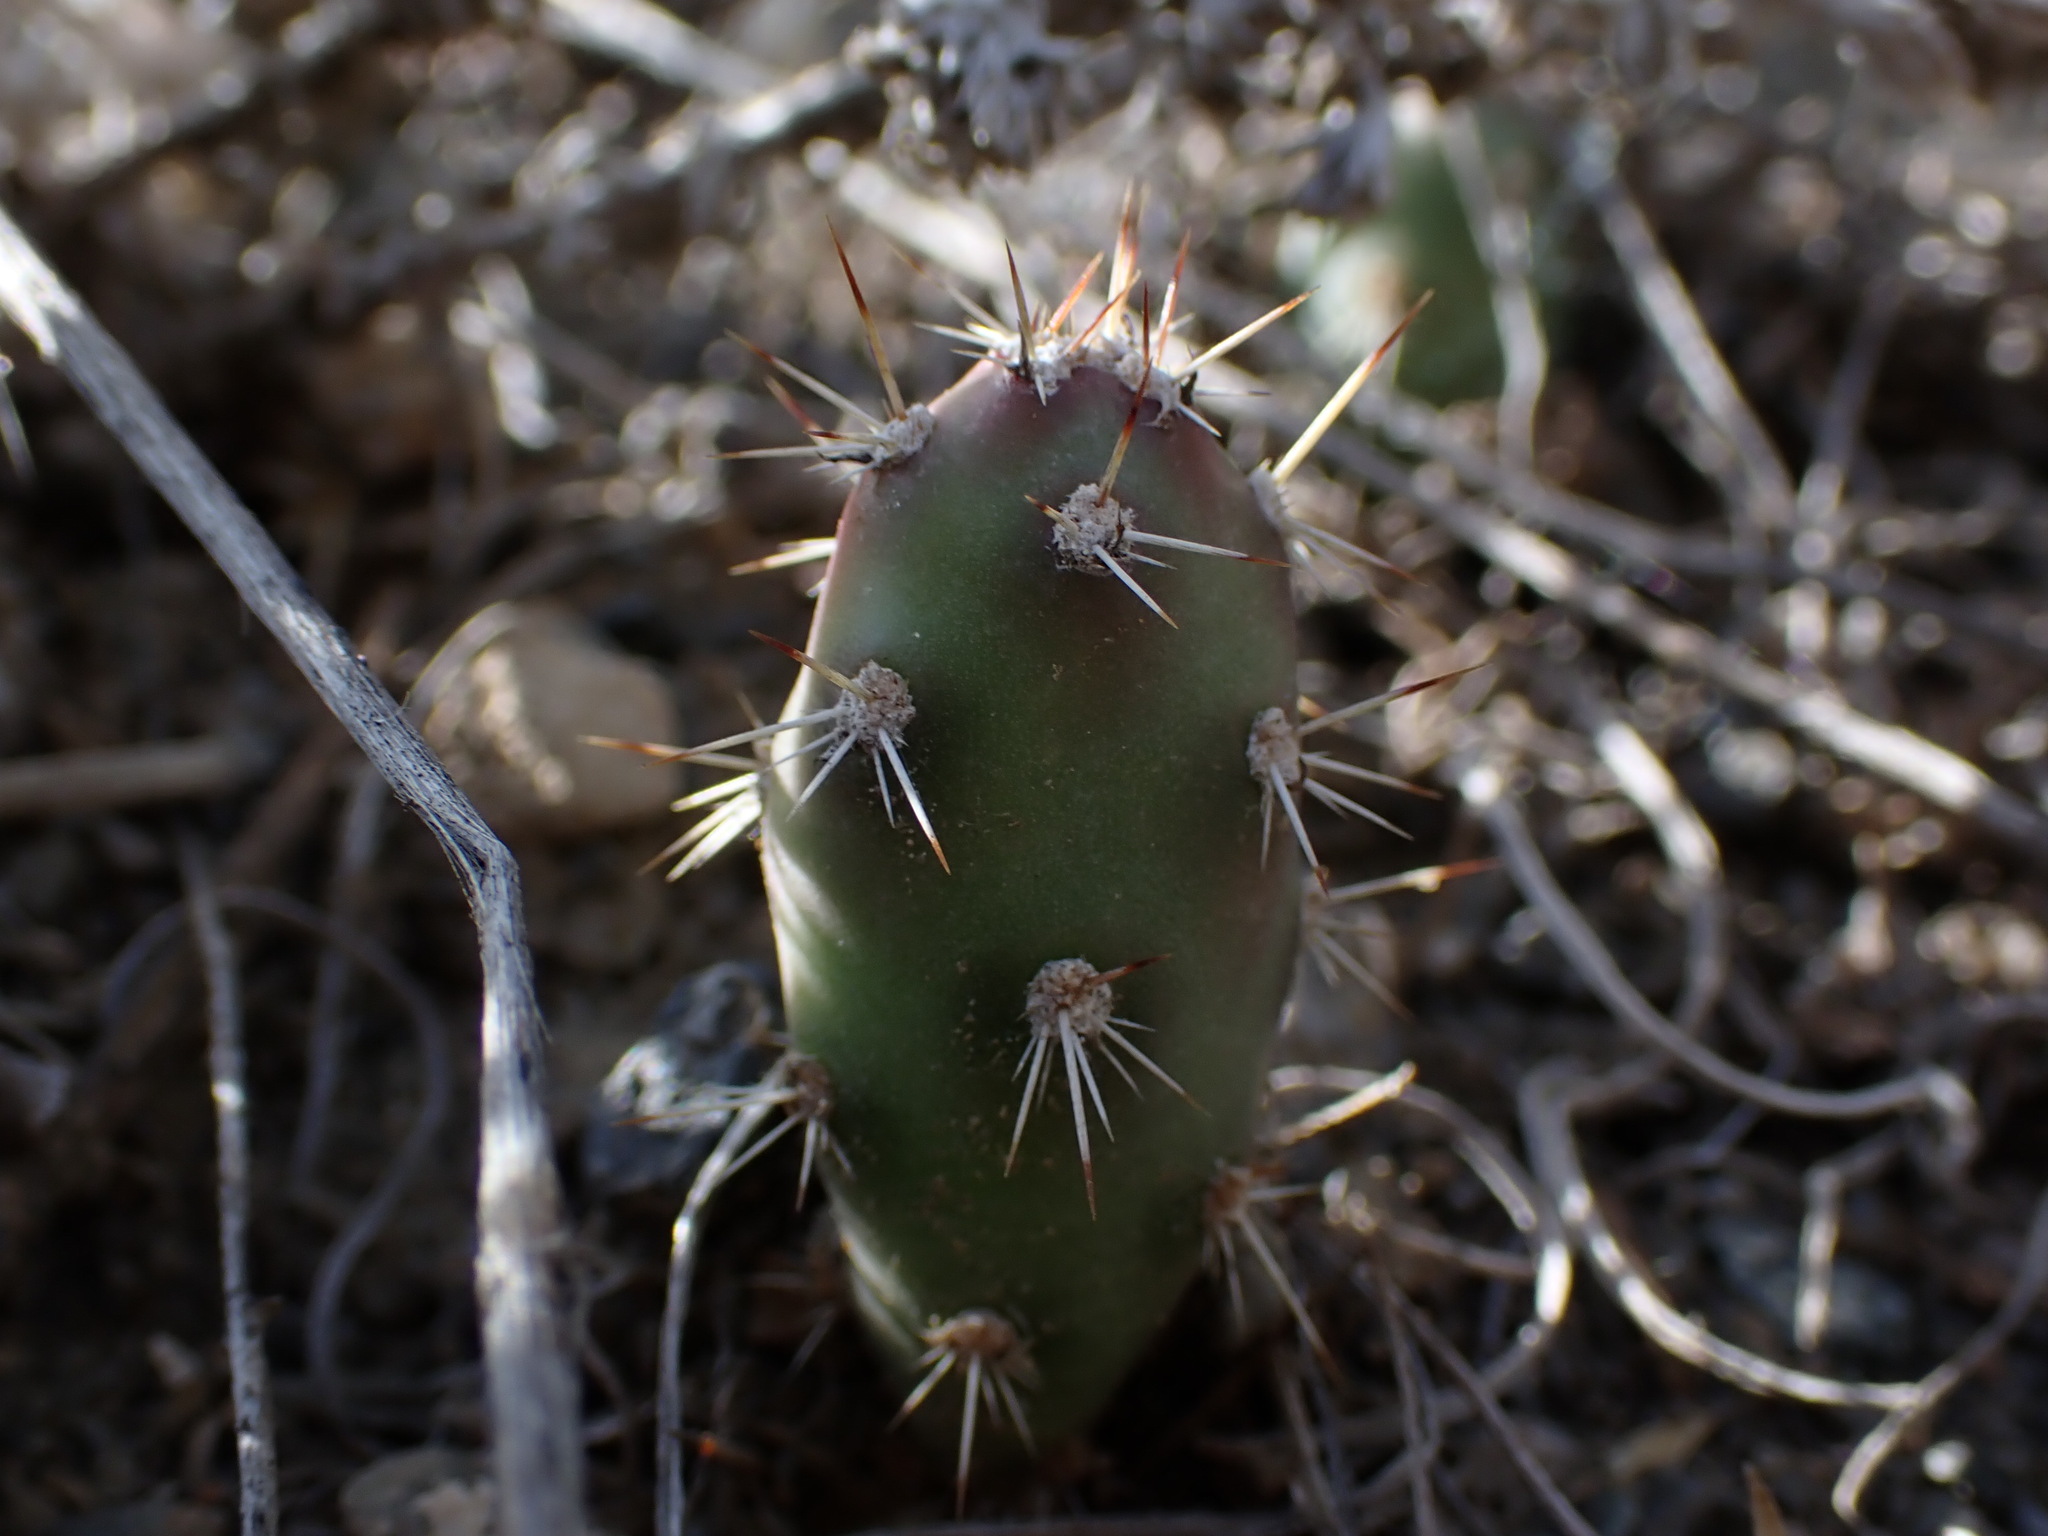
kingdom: Plantae
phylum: Tracheophyta
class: Magnoliopsida
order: Caryophyllales
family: Cactaceae
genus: Opuntia
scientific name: Opuntia fragilis
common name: Brittle cactus
